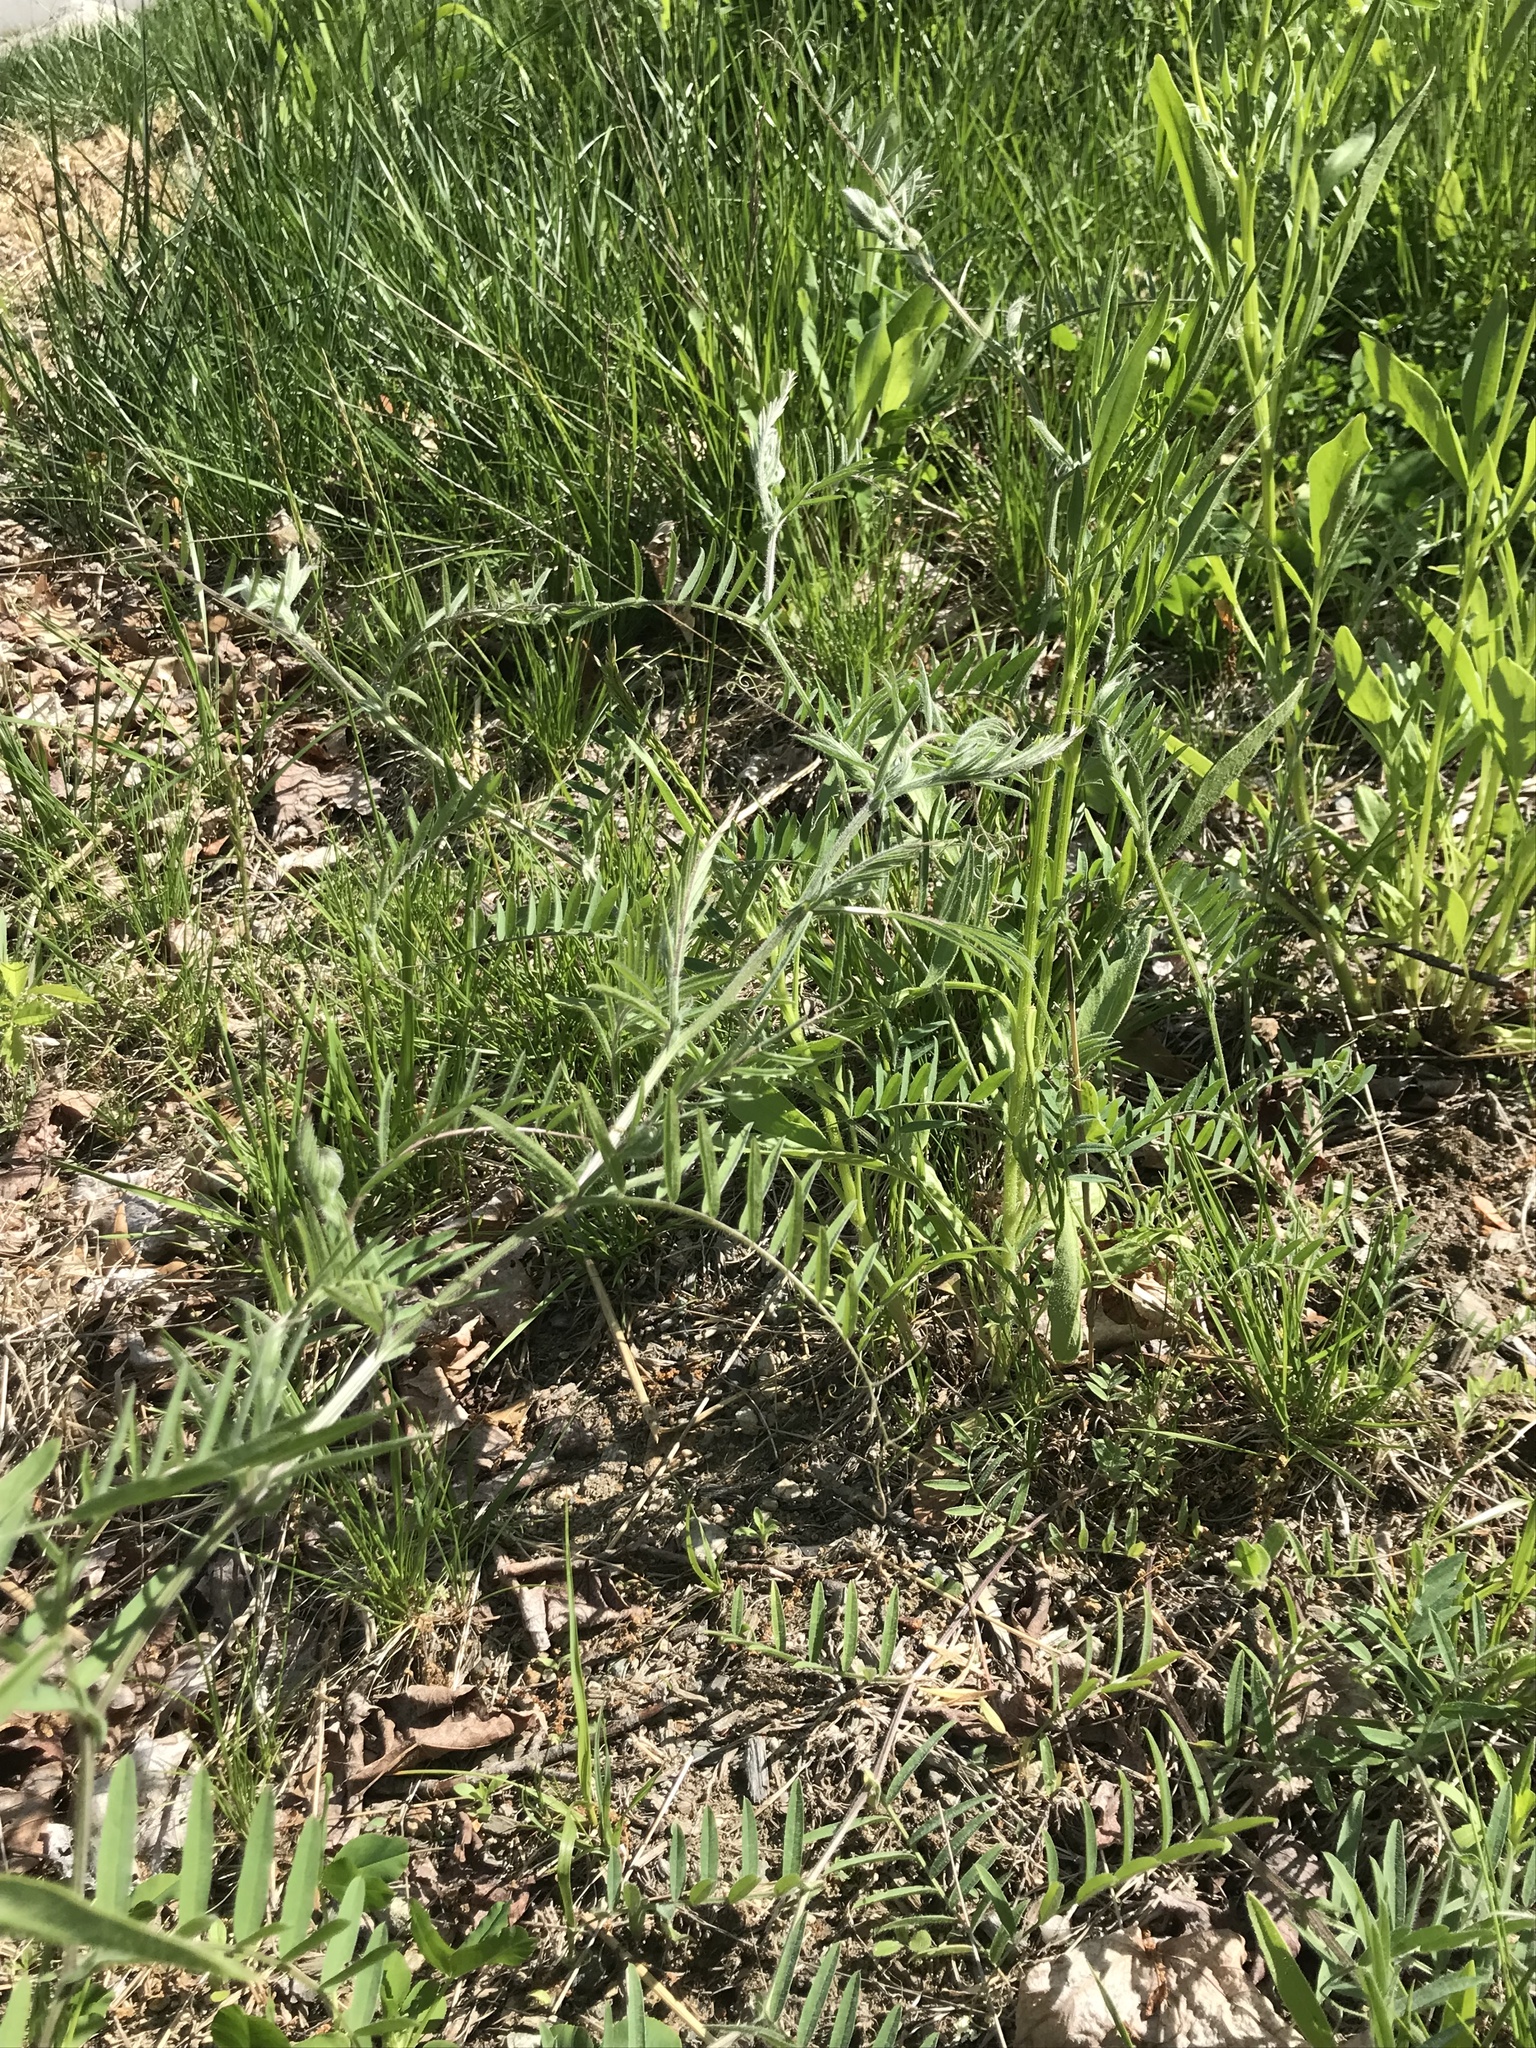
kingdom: Plantae
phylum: Tracheophyta
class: Magnoliopsida
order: Fabales
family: Fabaceae
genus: Vicia
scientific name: Vicia cracca
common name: Bird vetch
